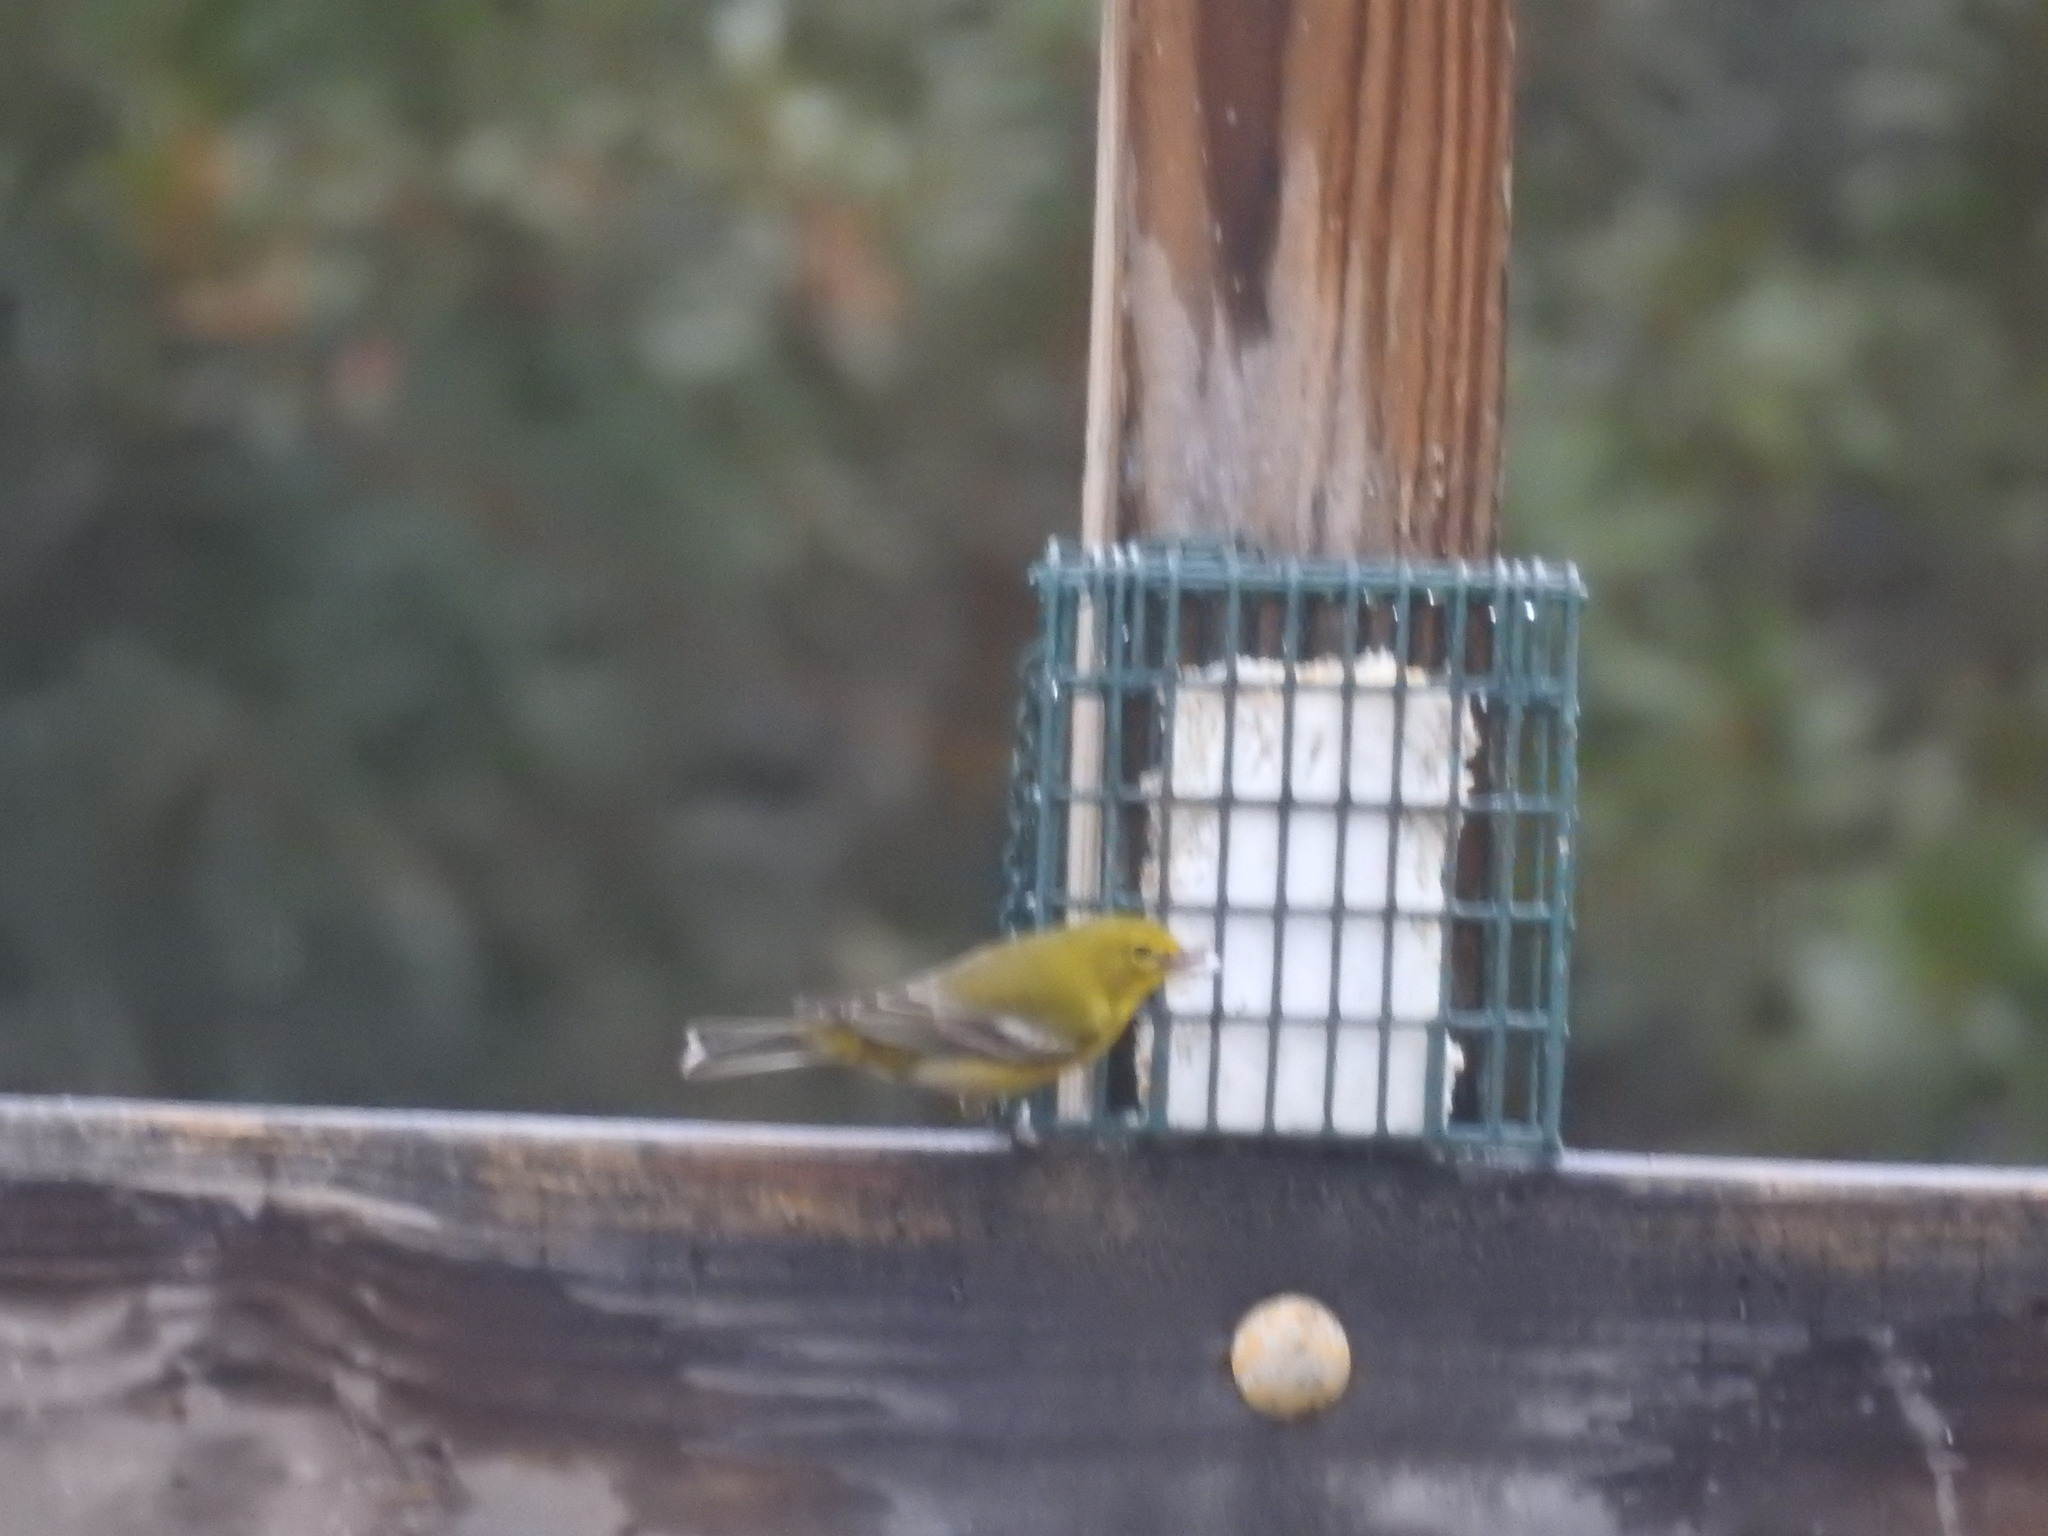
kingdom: Animalia
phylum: Chordata
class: Aves
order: Passeriformes
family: Parulidae
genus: Setophaga
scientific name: Setophaga pinus
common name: Pine warbler
